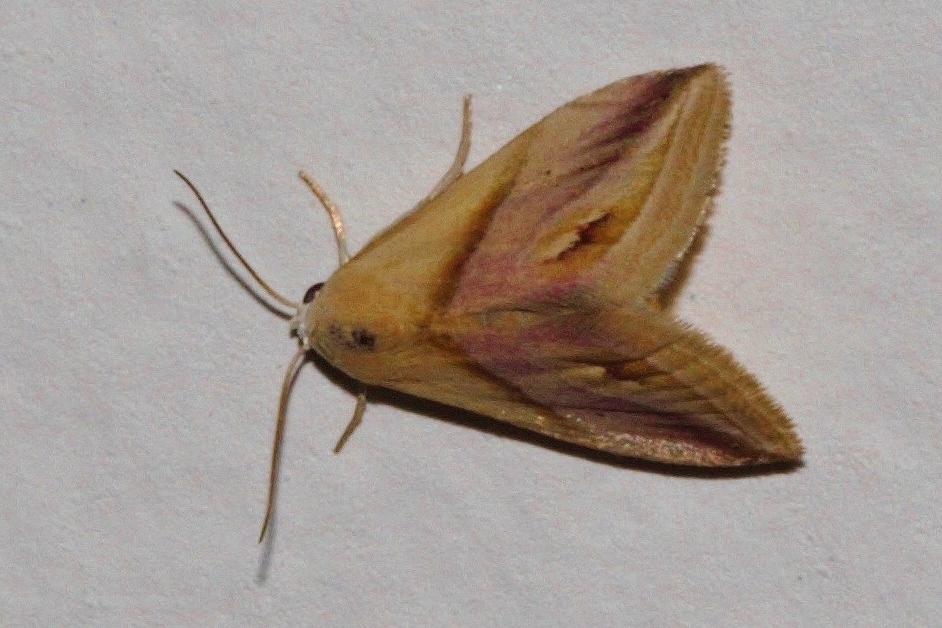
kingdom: Animalia
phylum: Arthropoda
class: Insecta
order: Lepidoptera
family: Noctuidae
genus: Eublemma
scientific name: Eublemma cochylioides
